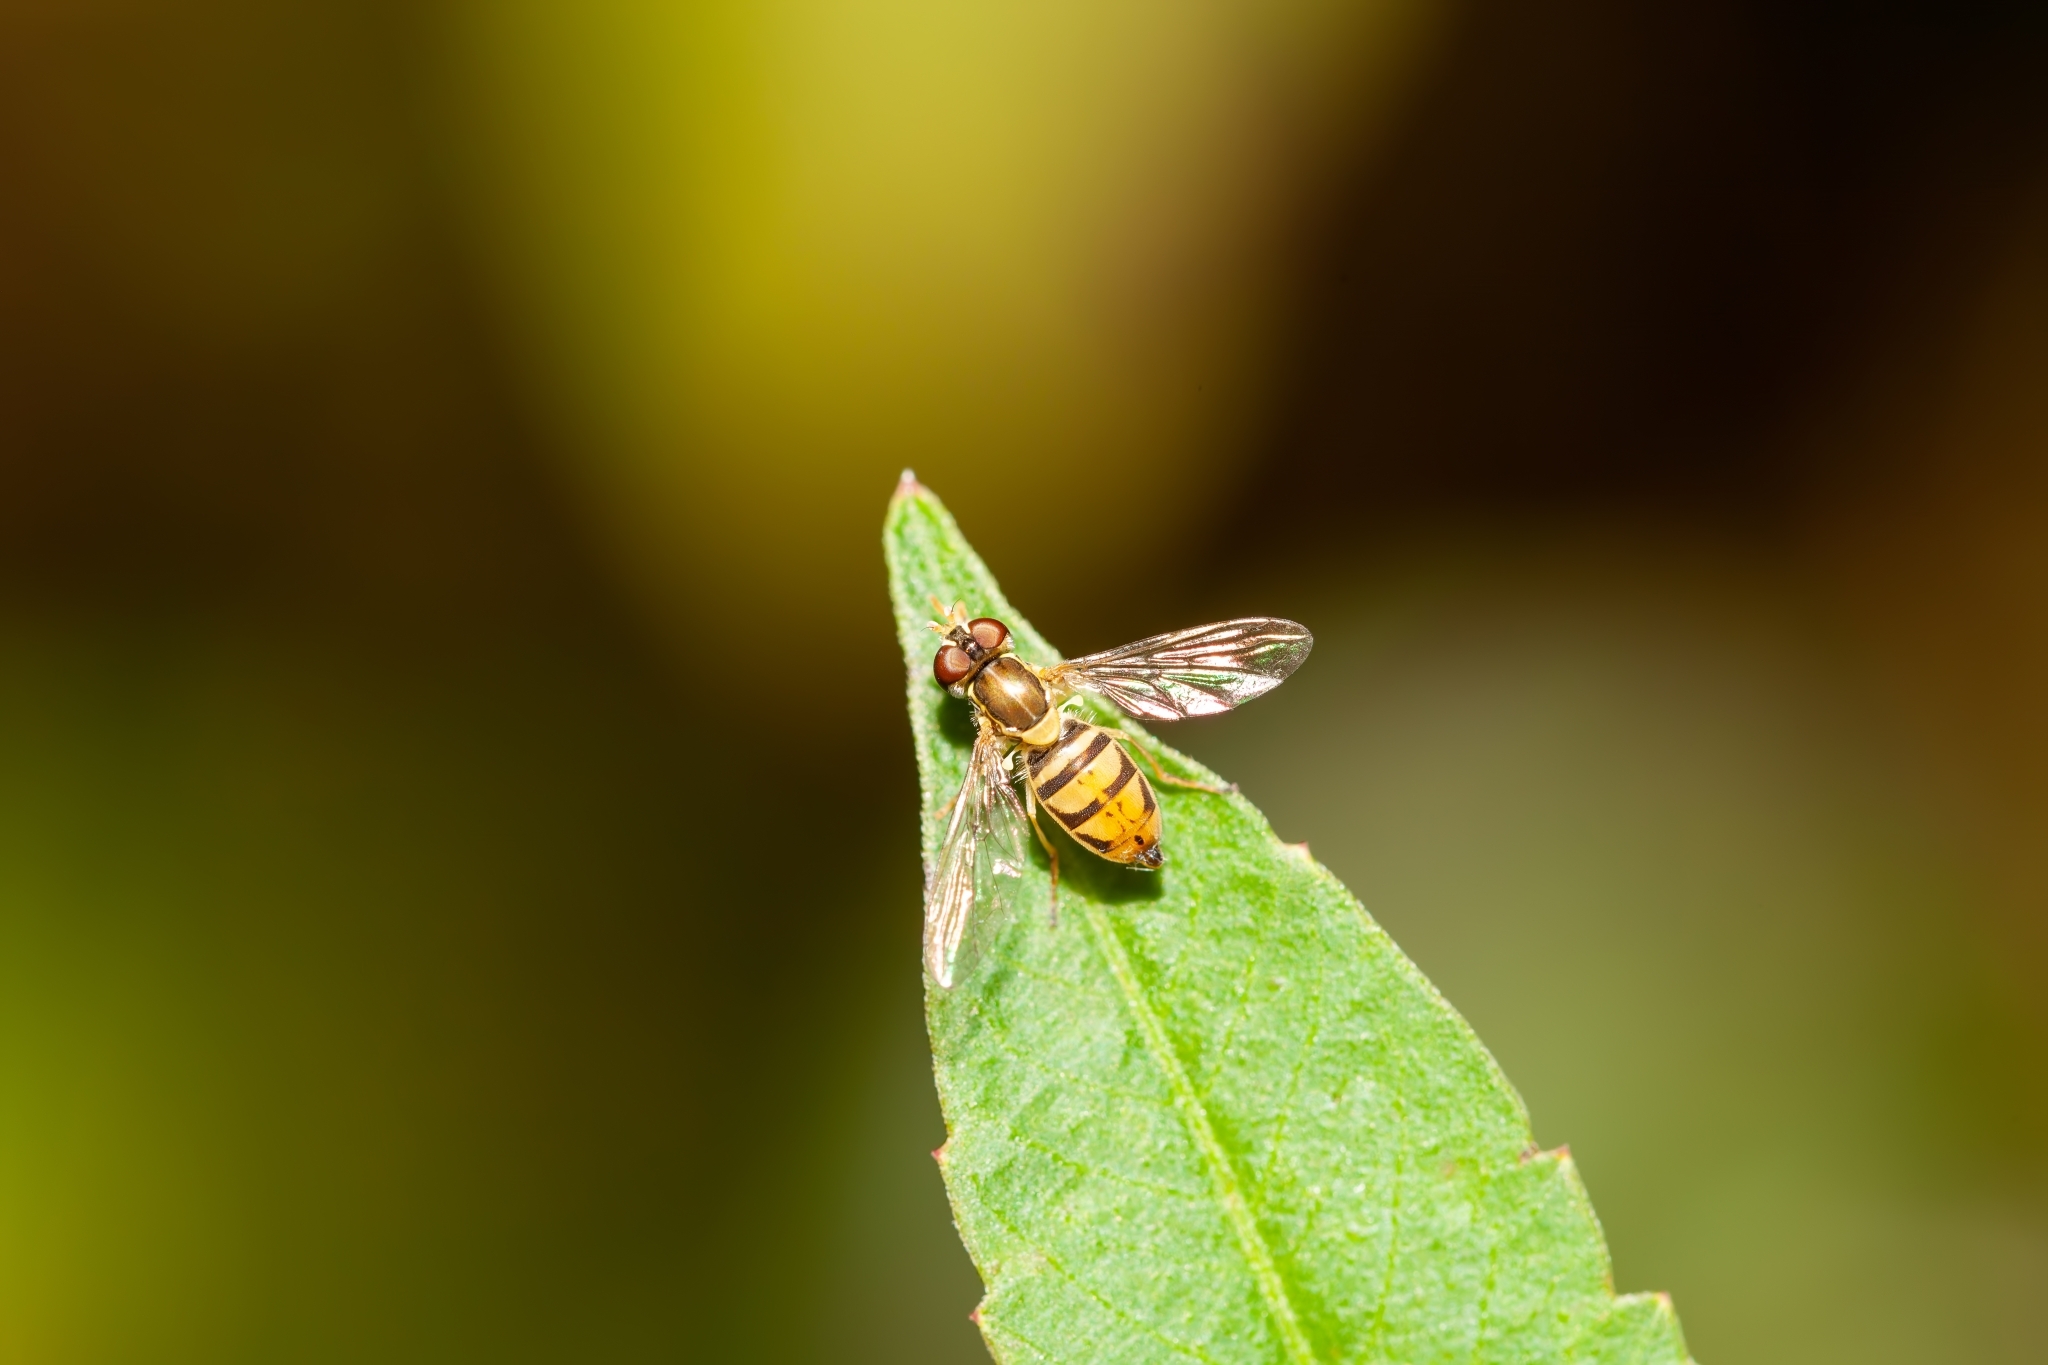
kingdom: Animalia
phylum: Arthropoda
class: Insecta
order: Diptera
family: Syrphidae
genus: Toxomerus
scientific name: Toxomerus marginatus
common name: Syrphid fly
